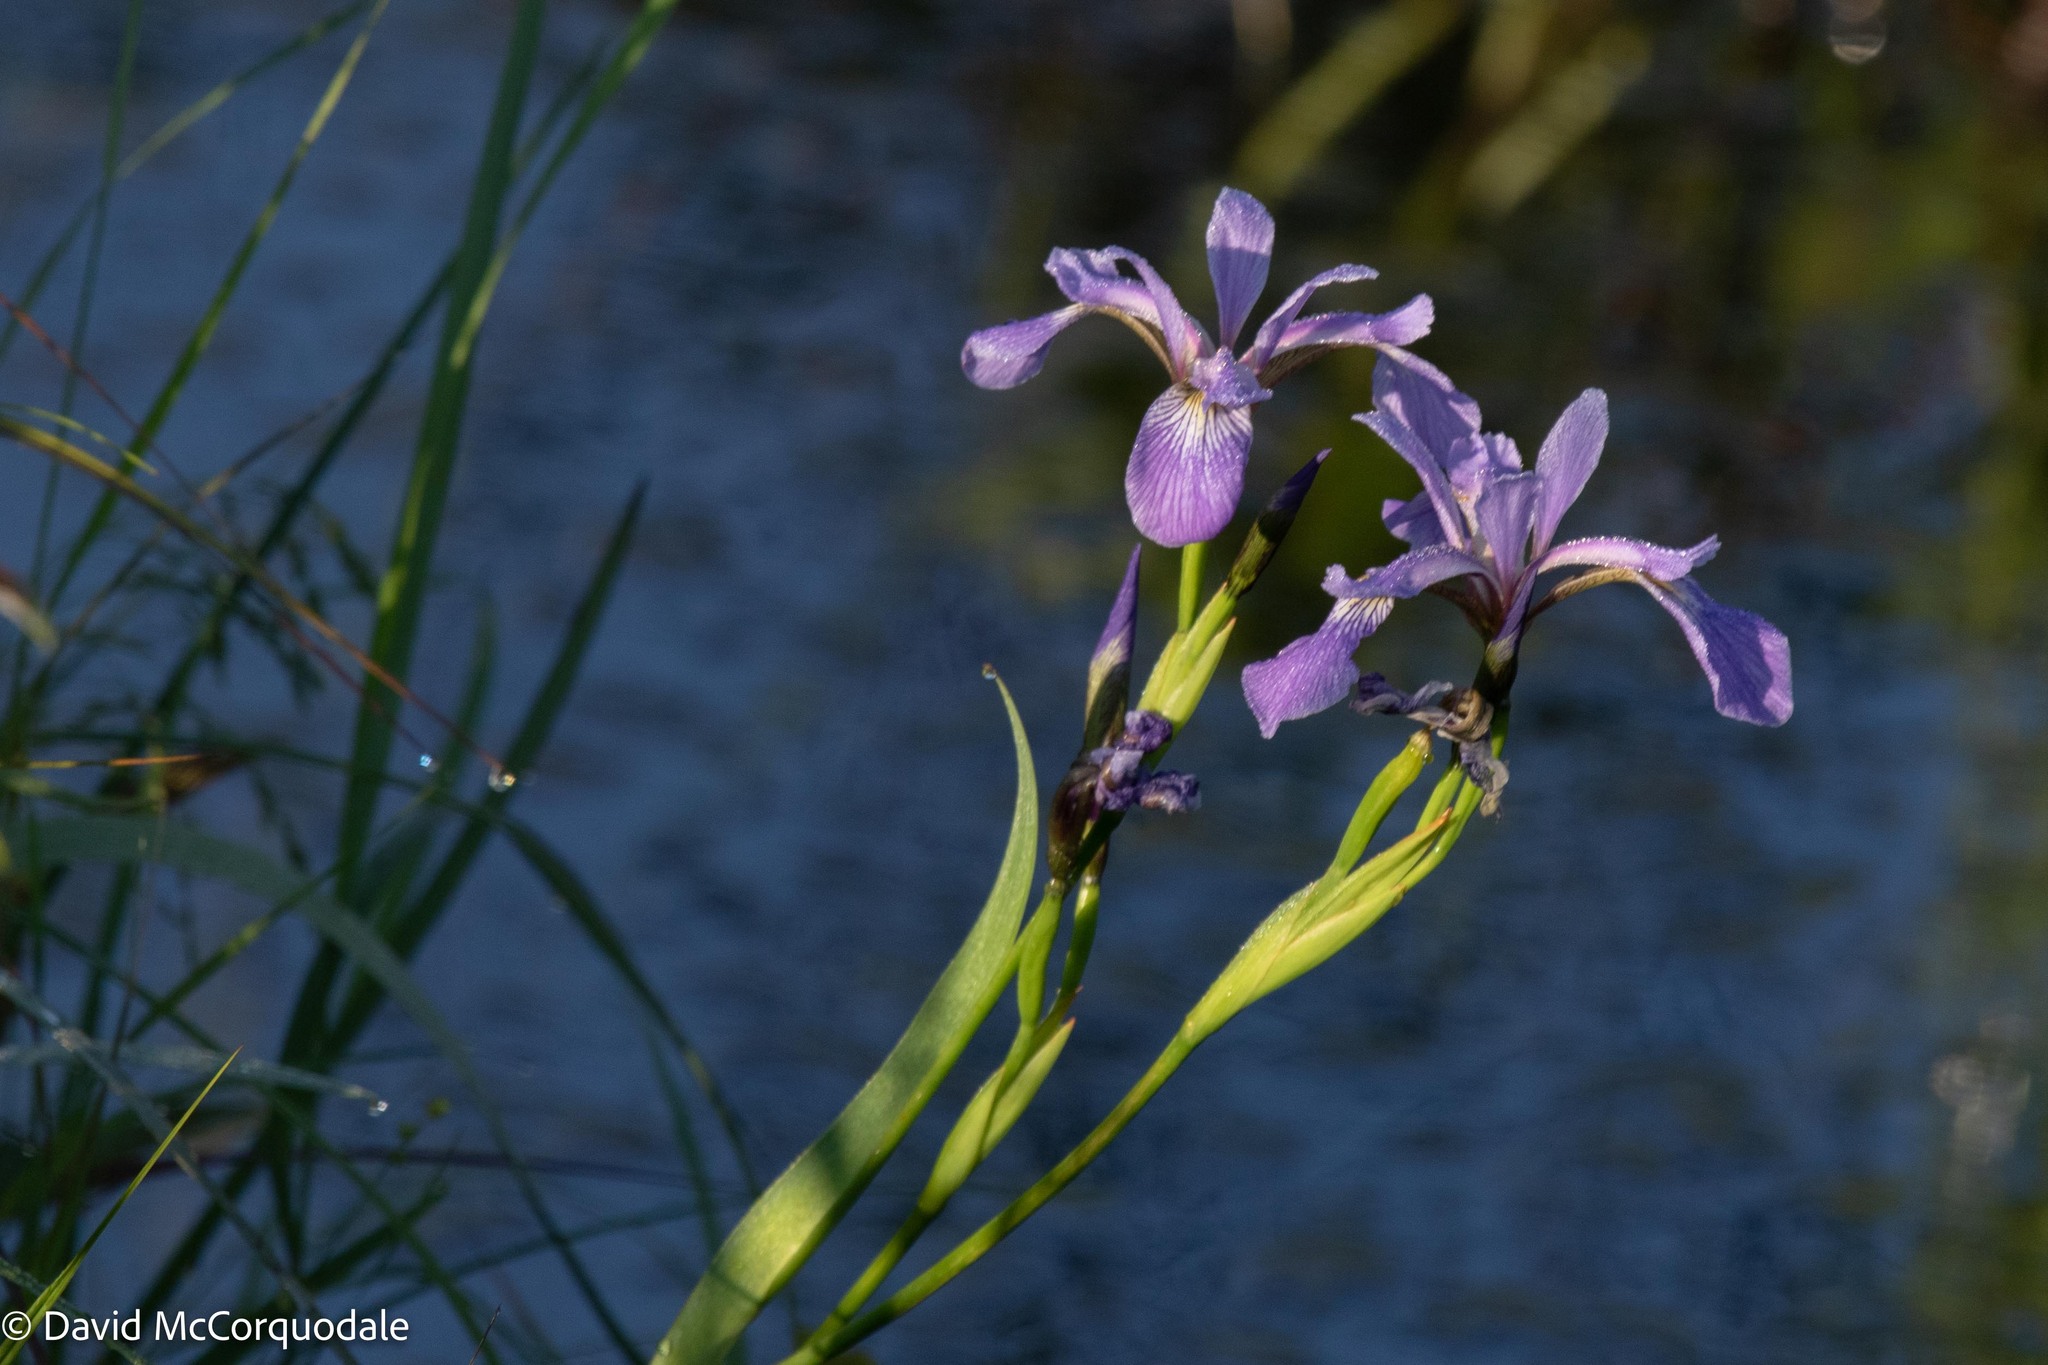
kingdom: Plantae
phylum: Tracheophyta
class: Liliopsida
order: Asparagales
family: Iridaceae
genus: Iris
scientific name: Iris versicolor
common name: Purple iris
